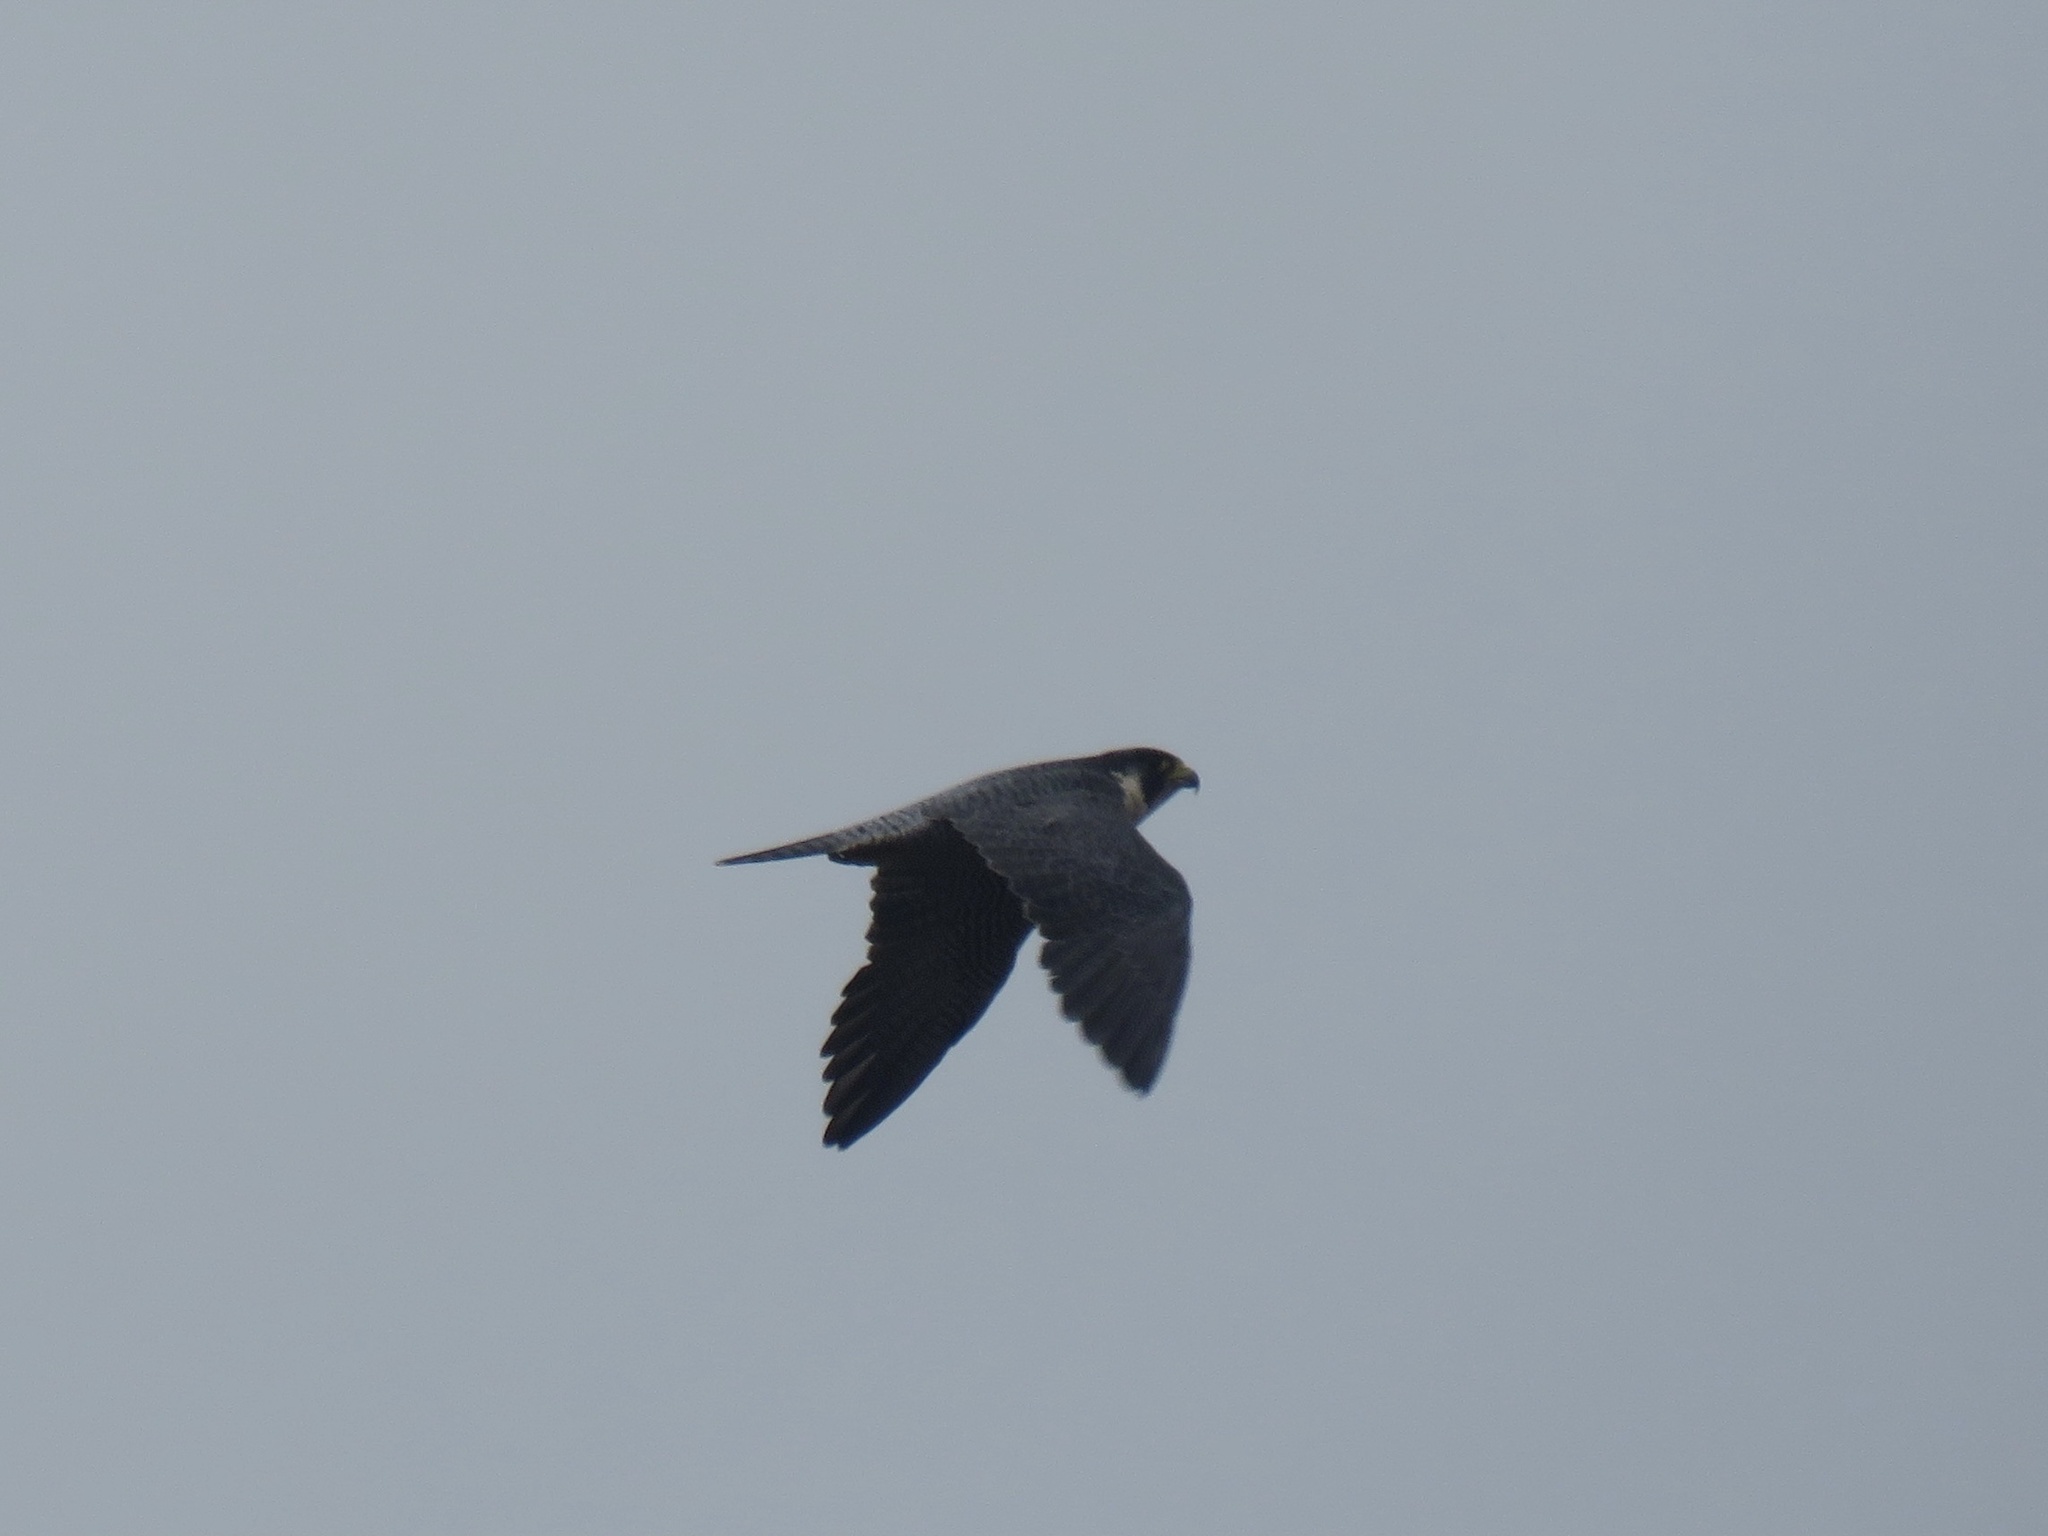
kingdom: Animalia
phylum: Chordata
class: Aves
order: Falconiformes
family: Falconidae
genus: Falco
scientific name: Falco peregrinus
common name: Peregrine falcon
